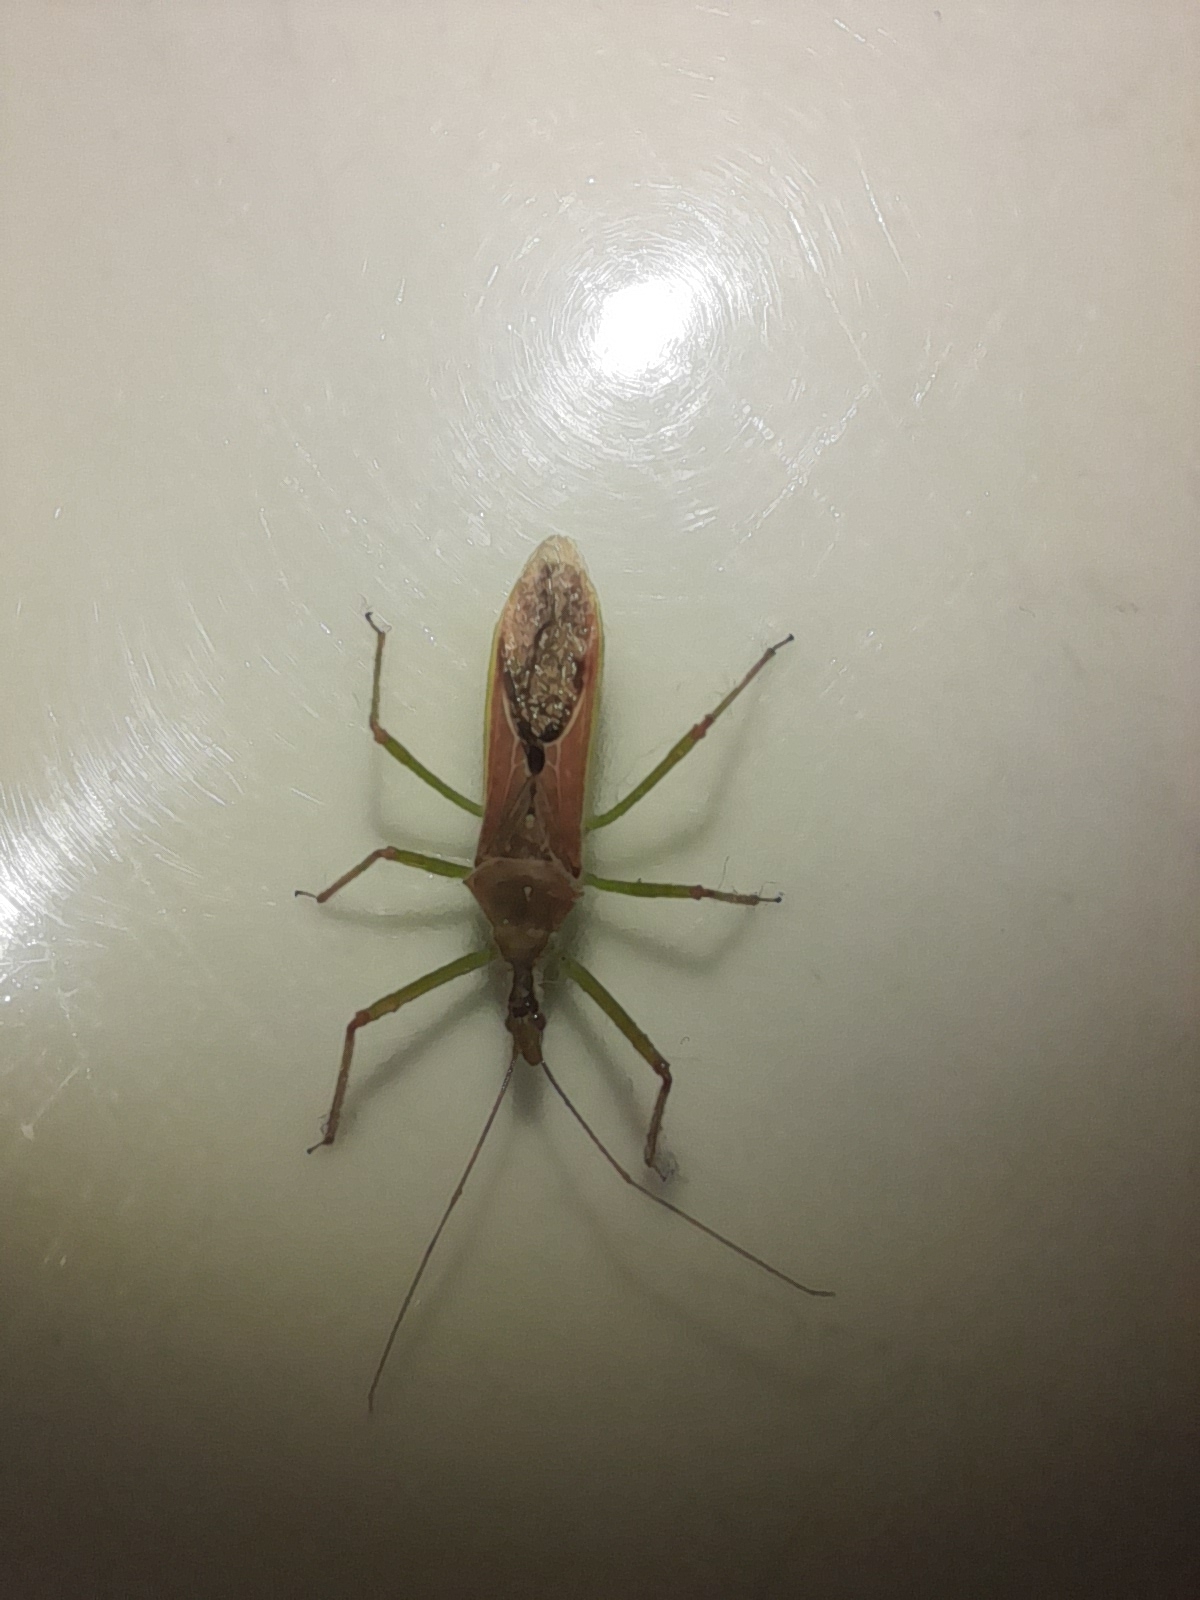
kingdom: Animalia
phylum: Arthropoda
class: Insecta
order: Hemiptera
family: Reduviidae
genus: Zelus
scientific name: Zelus renardii
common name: Assassin bug
